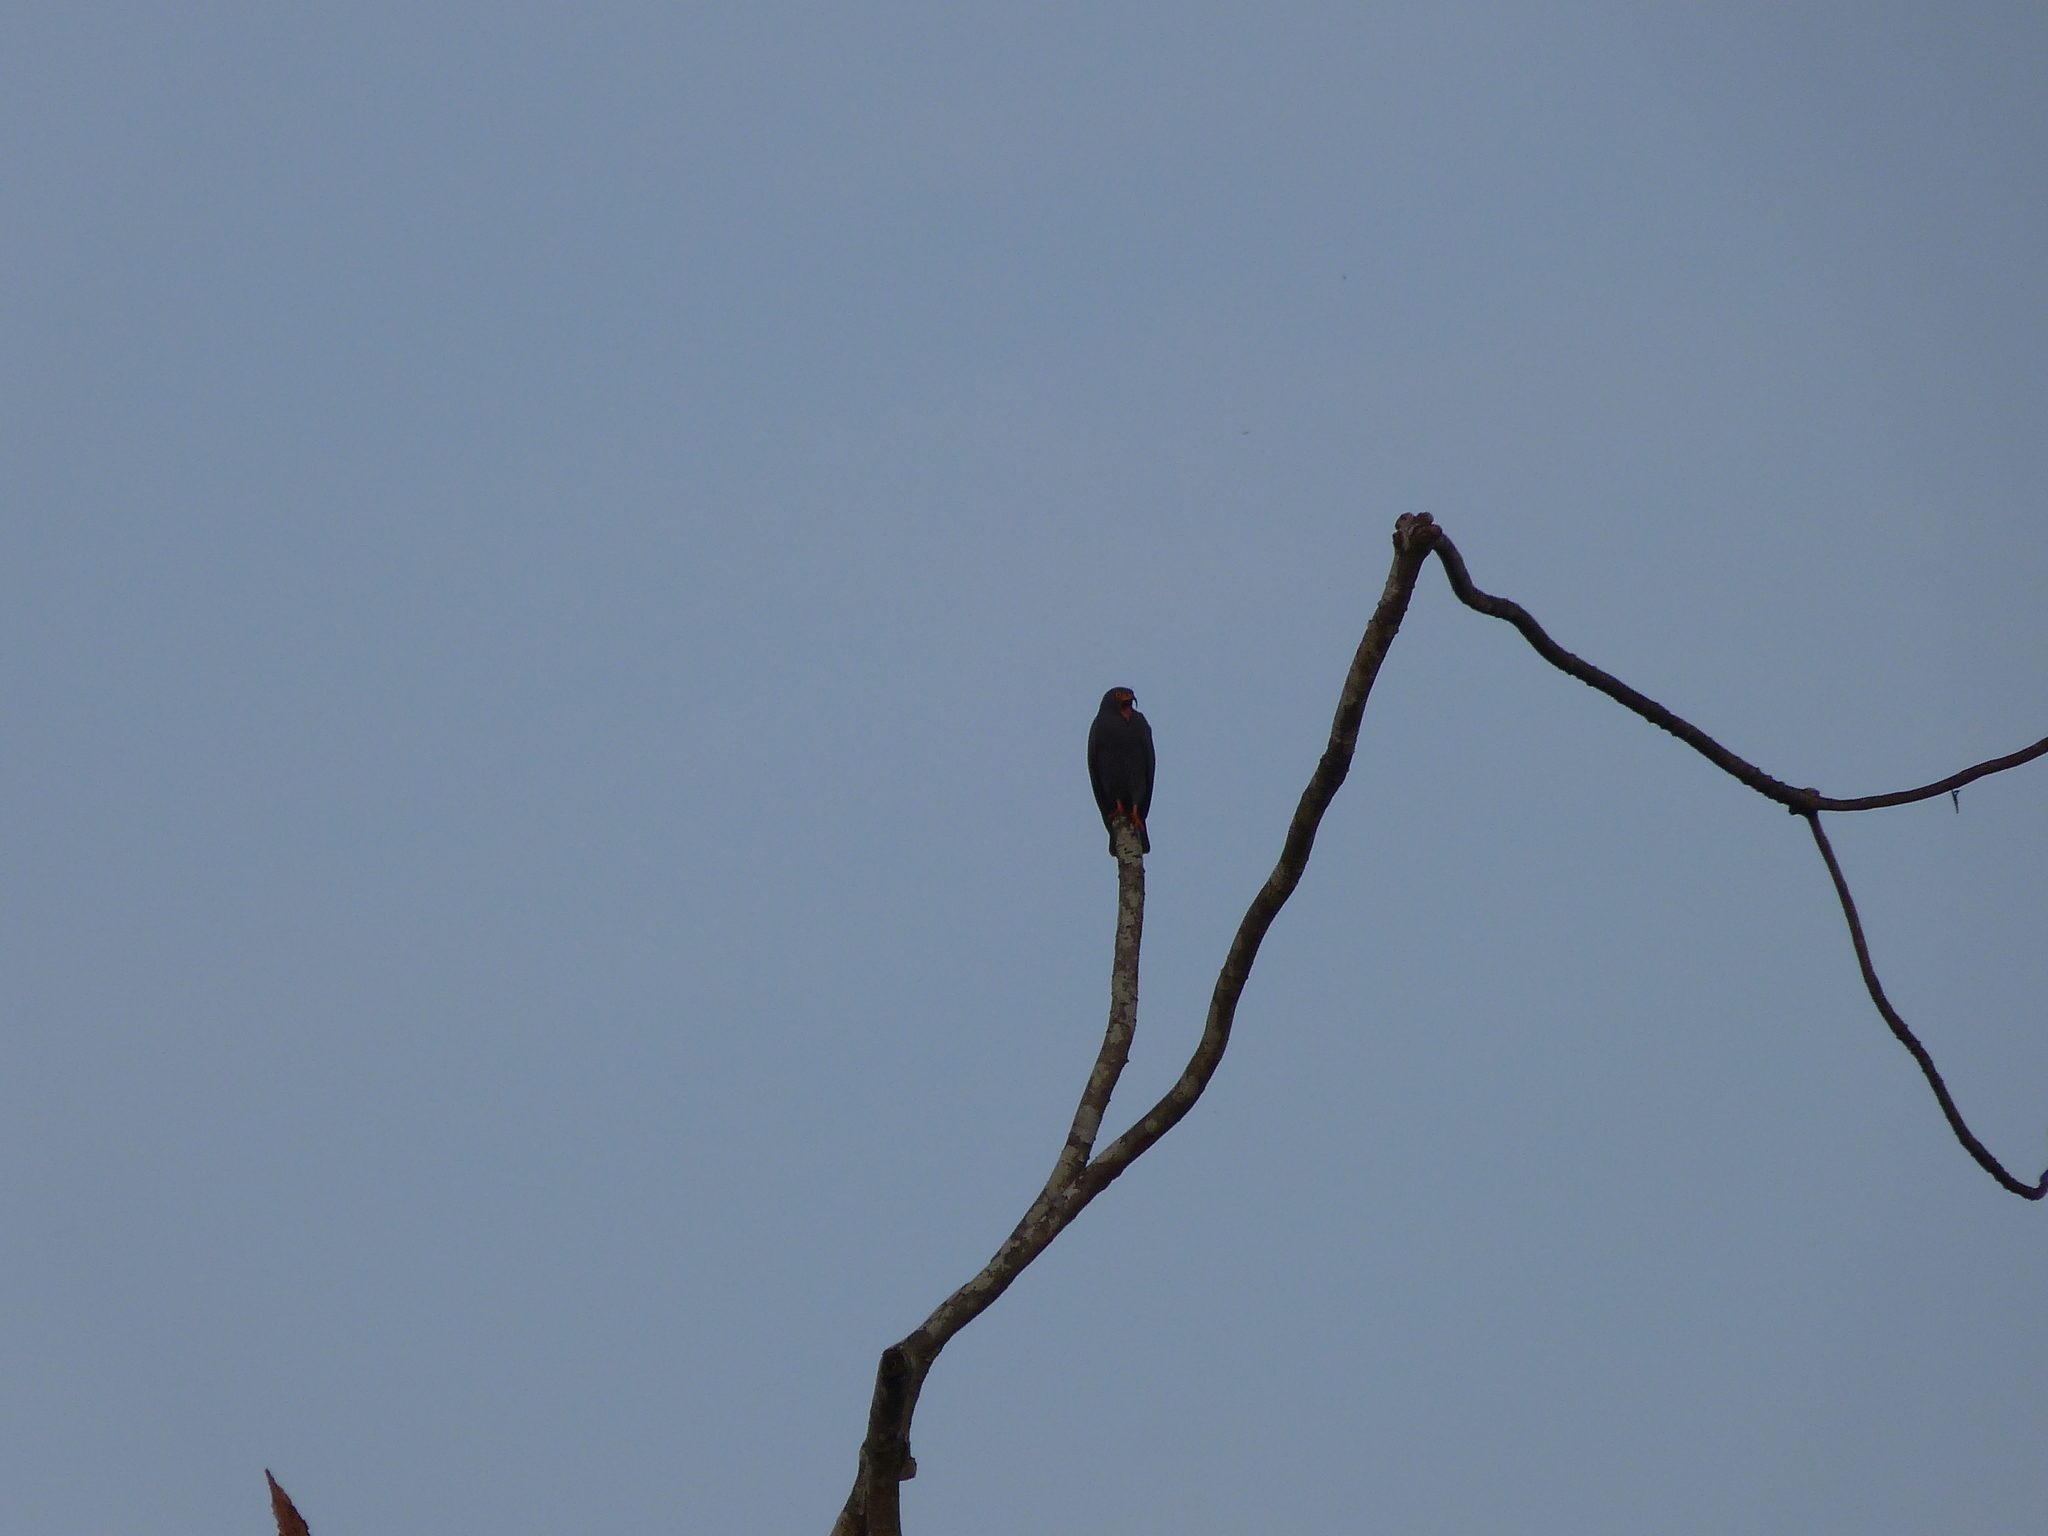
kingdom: Animalia
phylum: Chordata
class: Aves
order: Accipitriformes
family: Accipitridae
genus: Helicolestes
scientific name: Helicolestes hamatus
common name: Slender-billed kite
